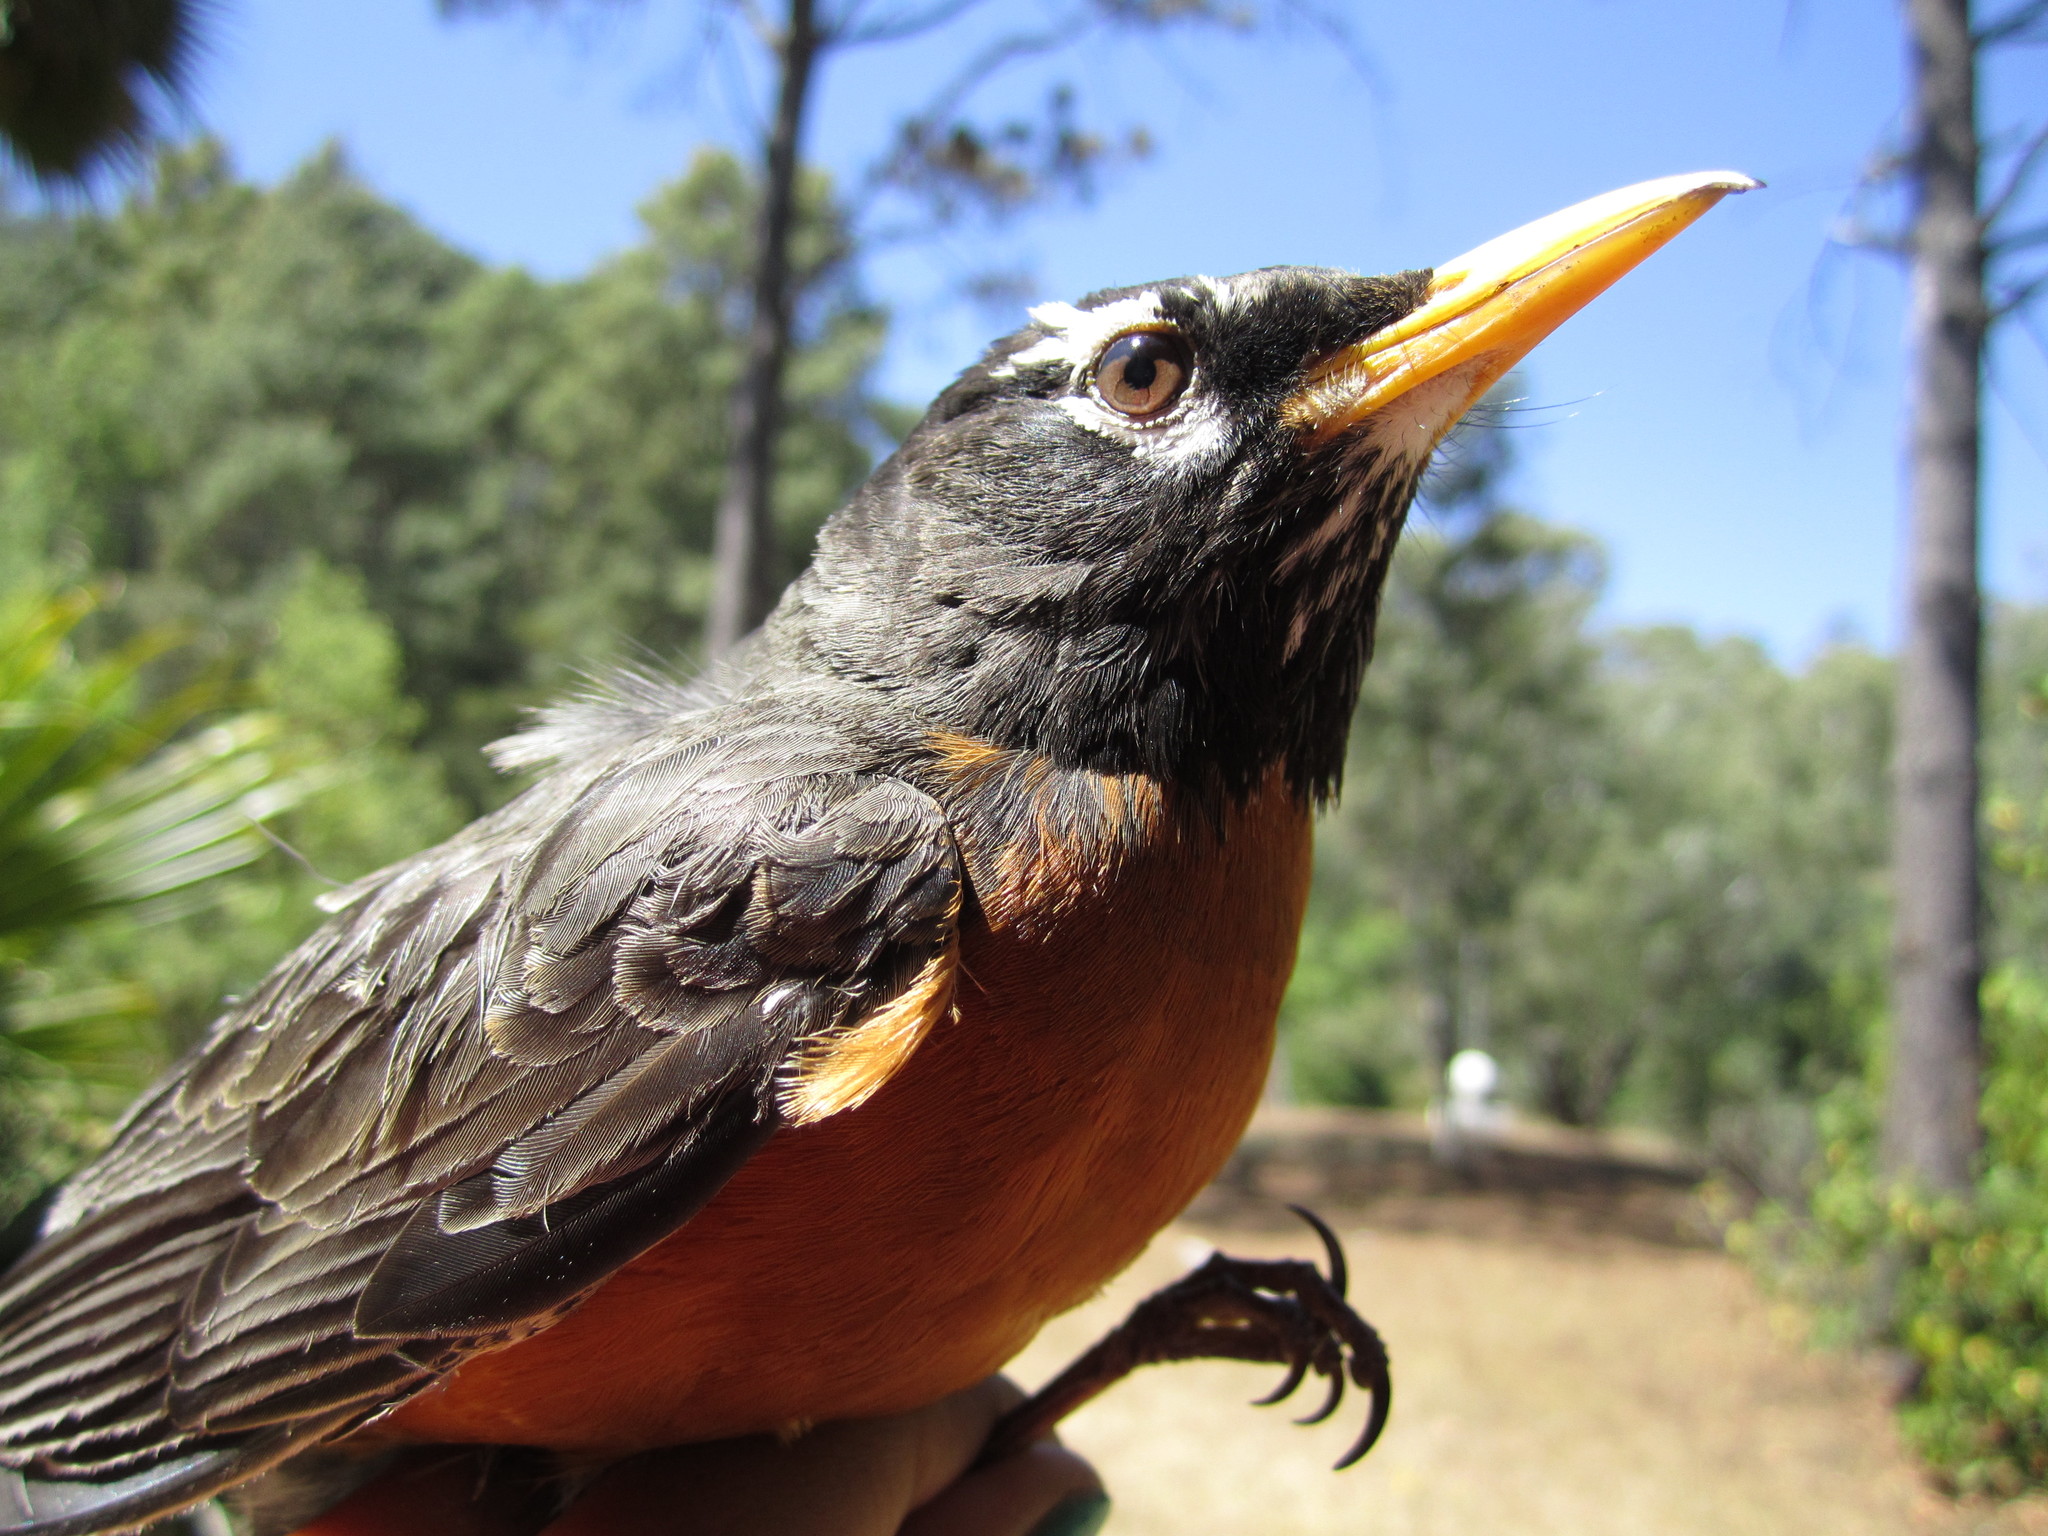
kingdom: Animalia
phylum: Chordata
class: Aves
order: Passeriformes
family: Turdidae
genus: Turdus
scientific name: Turdus migratorius
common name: American robin
